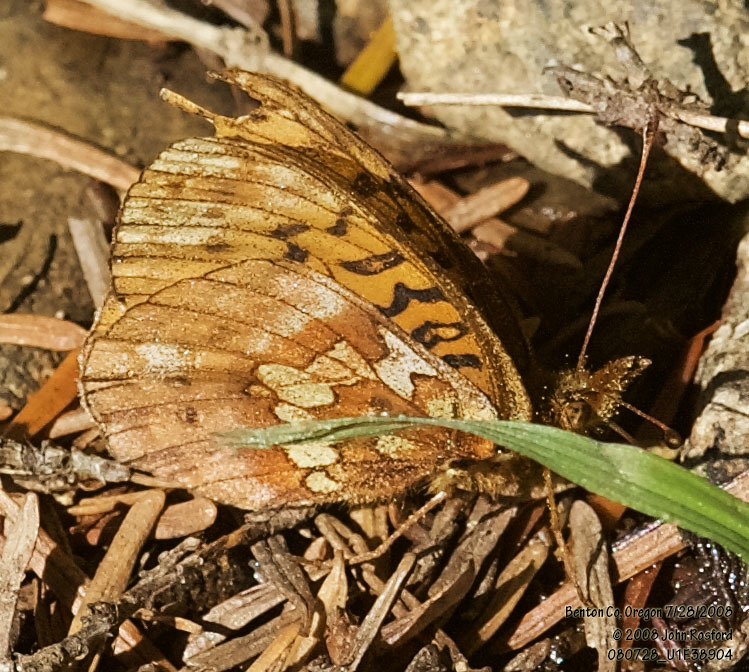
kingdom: Animalia
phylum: Arthropoda
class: Insecta
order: Lepidoptera
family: Nymphalidae
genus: Boloria
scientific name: Boloria epithore
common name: Pacific fritillary
